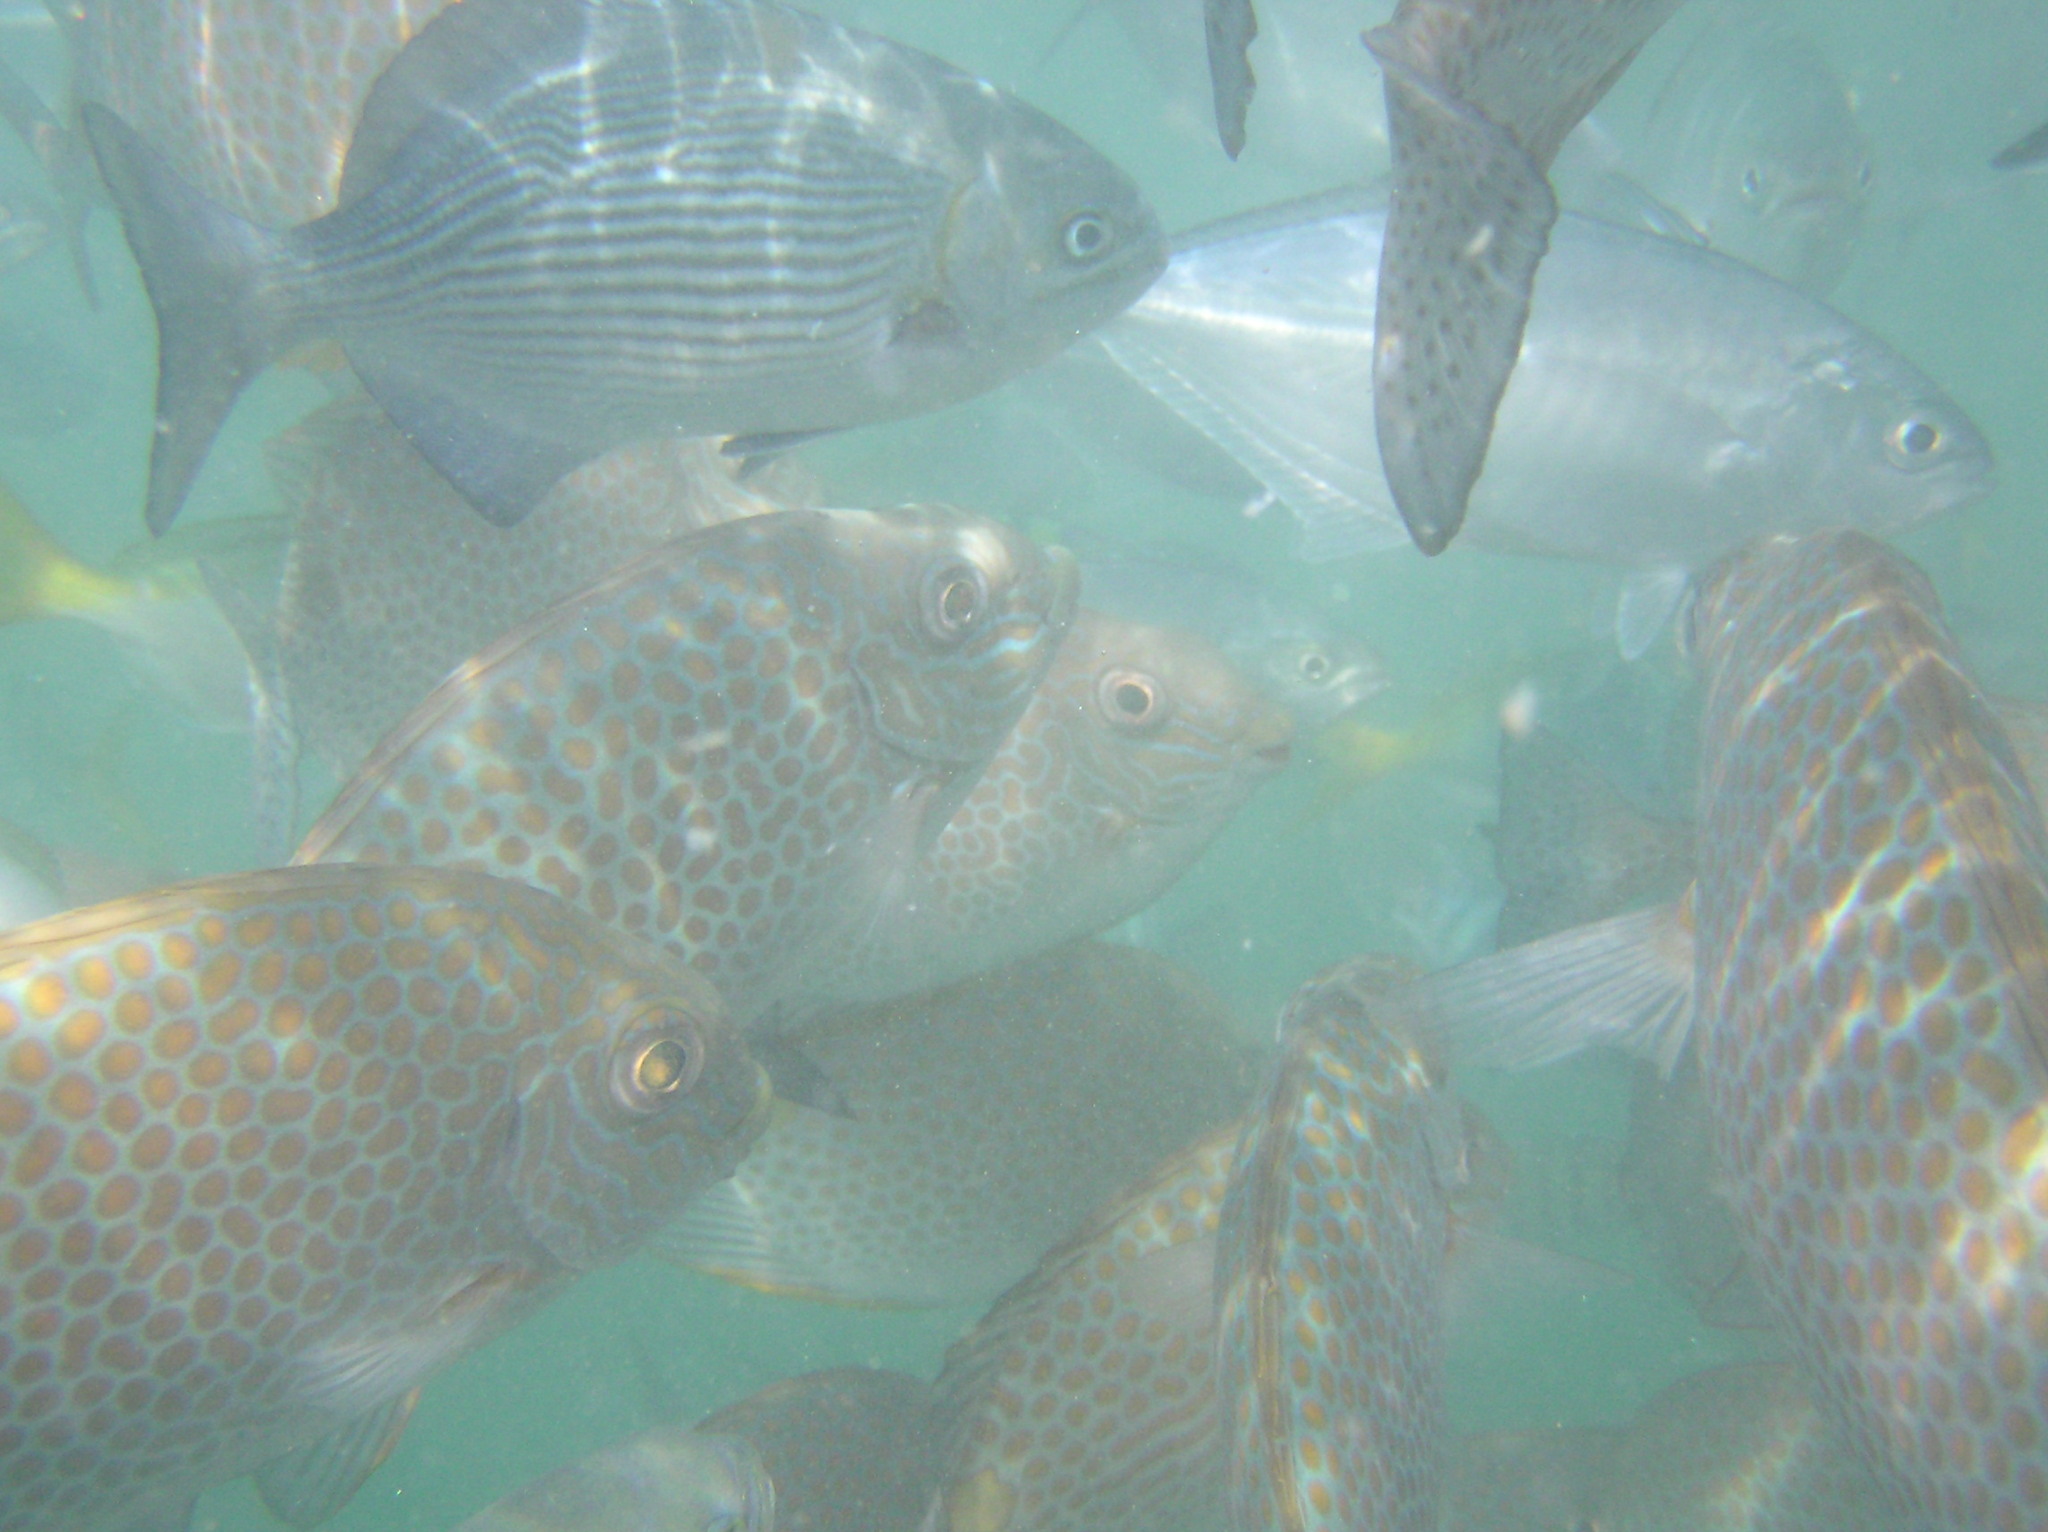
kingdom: Animalia
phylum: Chordata
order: Perciformes
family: Kyphosidae
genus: Kyphosus
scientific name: Kyphosus vaigiensis
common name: Brassy chub
